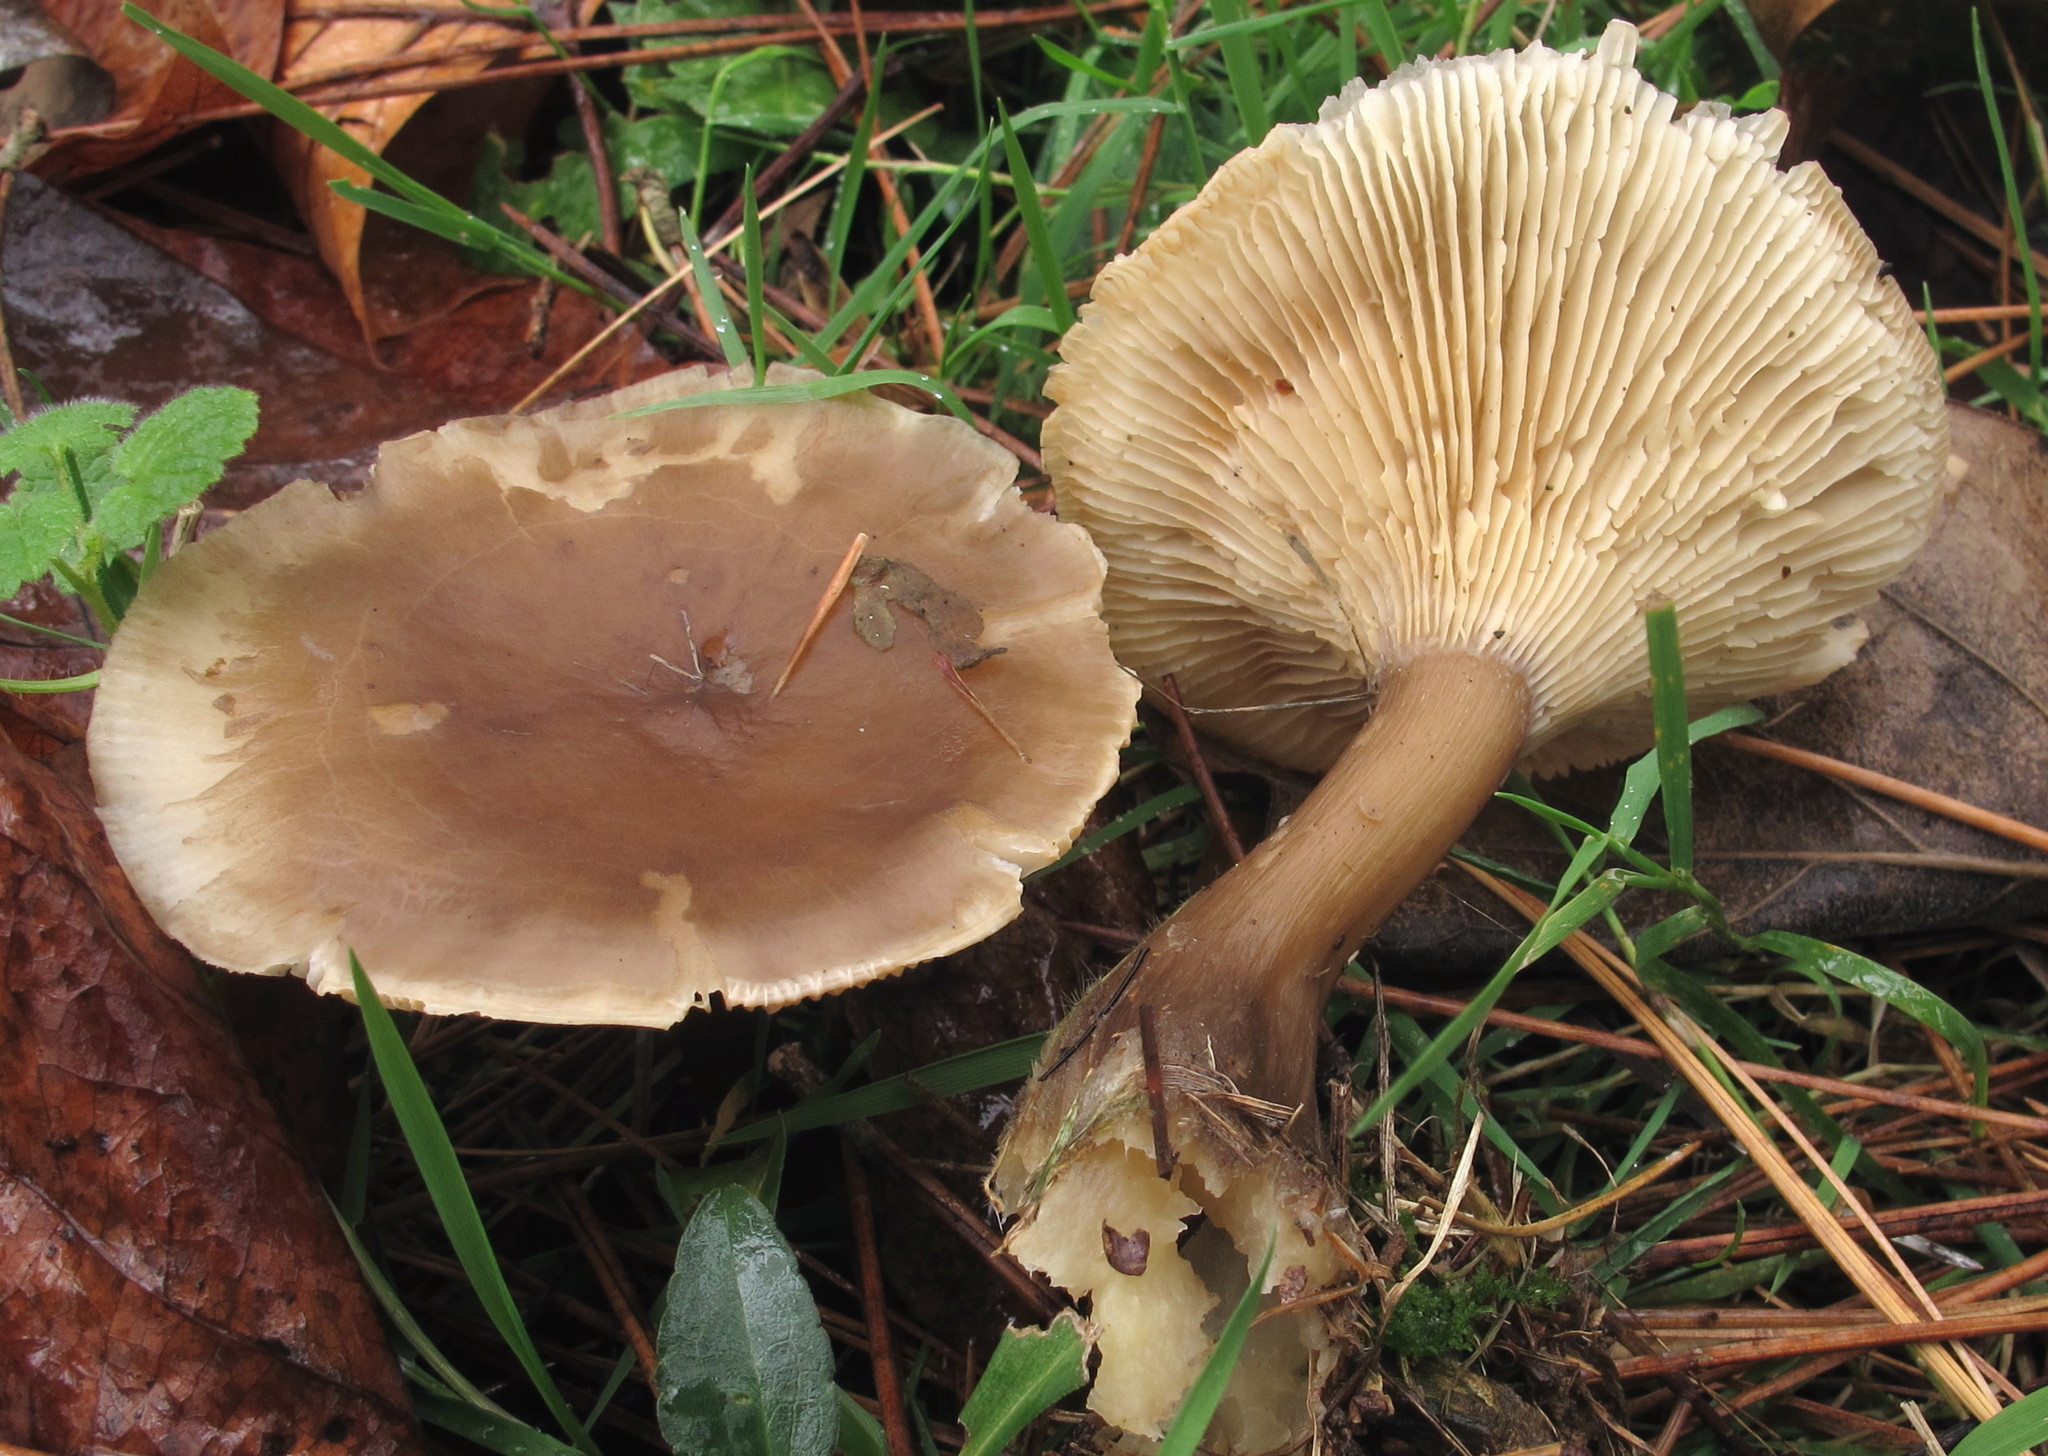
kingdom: Fungi
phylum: Basidiomycota
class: Agaricomycetes
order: Agaricales
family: Hygrophoraceae
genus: Ampulloclitocybe
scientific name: Ampulloclitocybe clavipes
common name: Club foot
